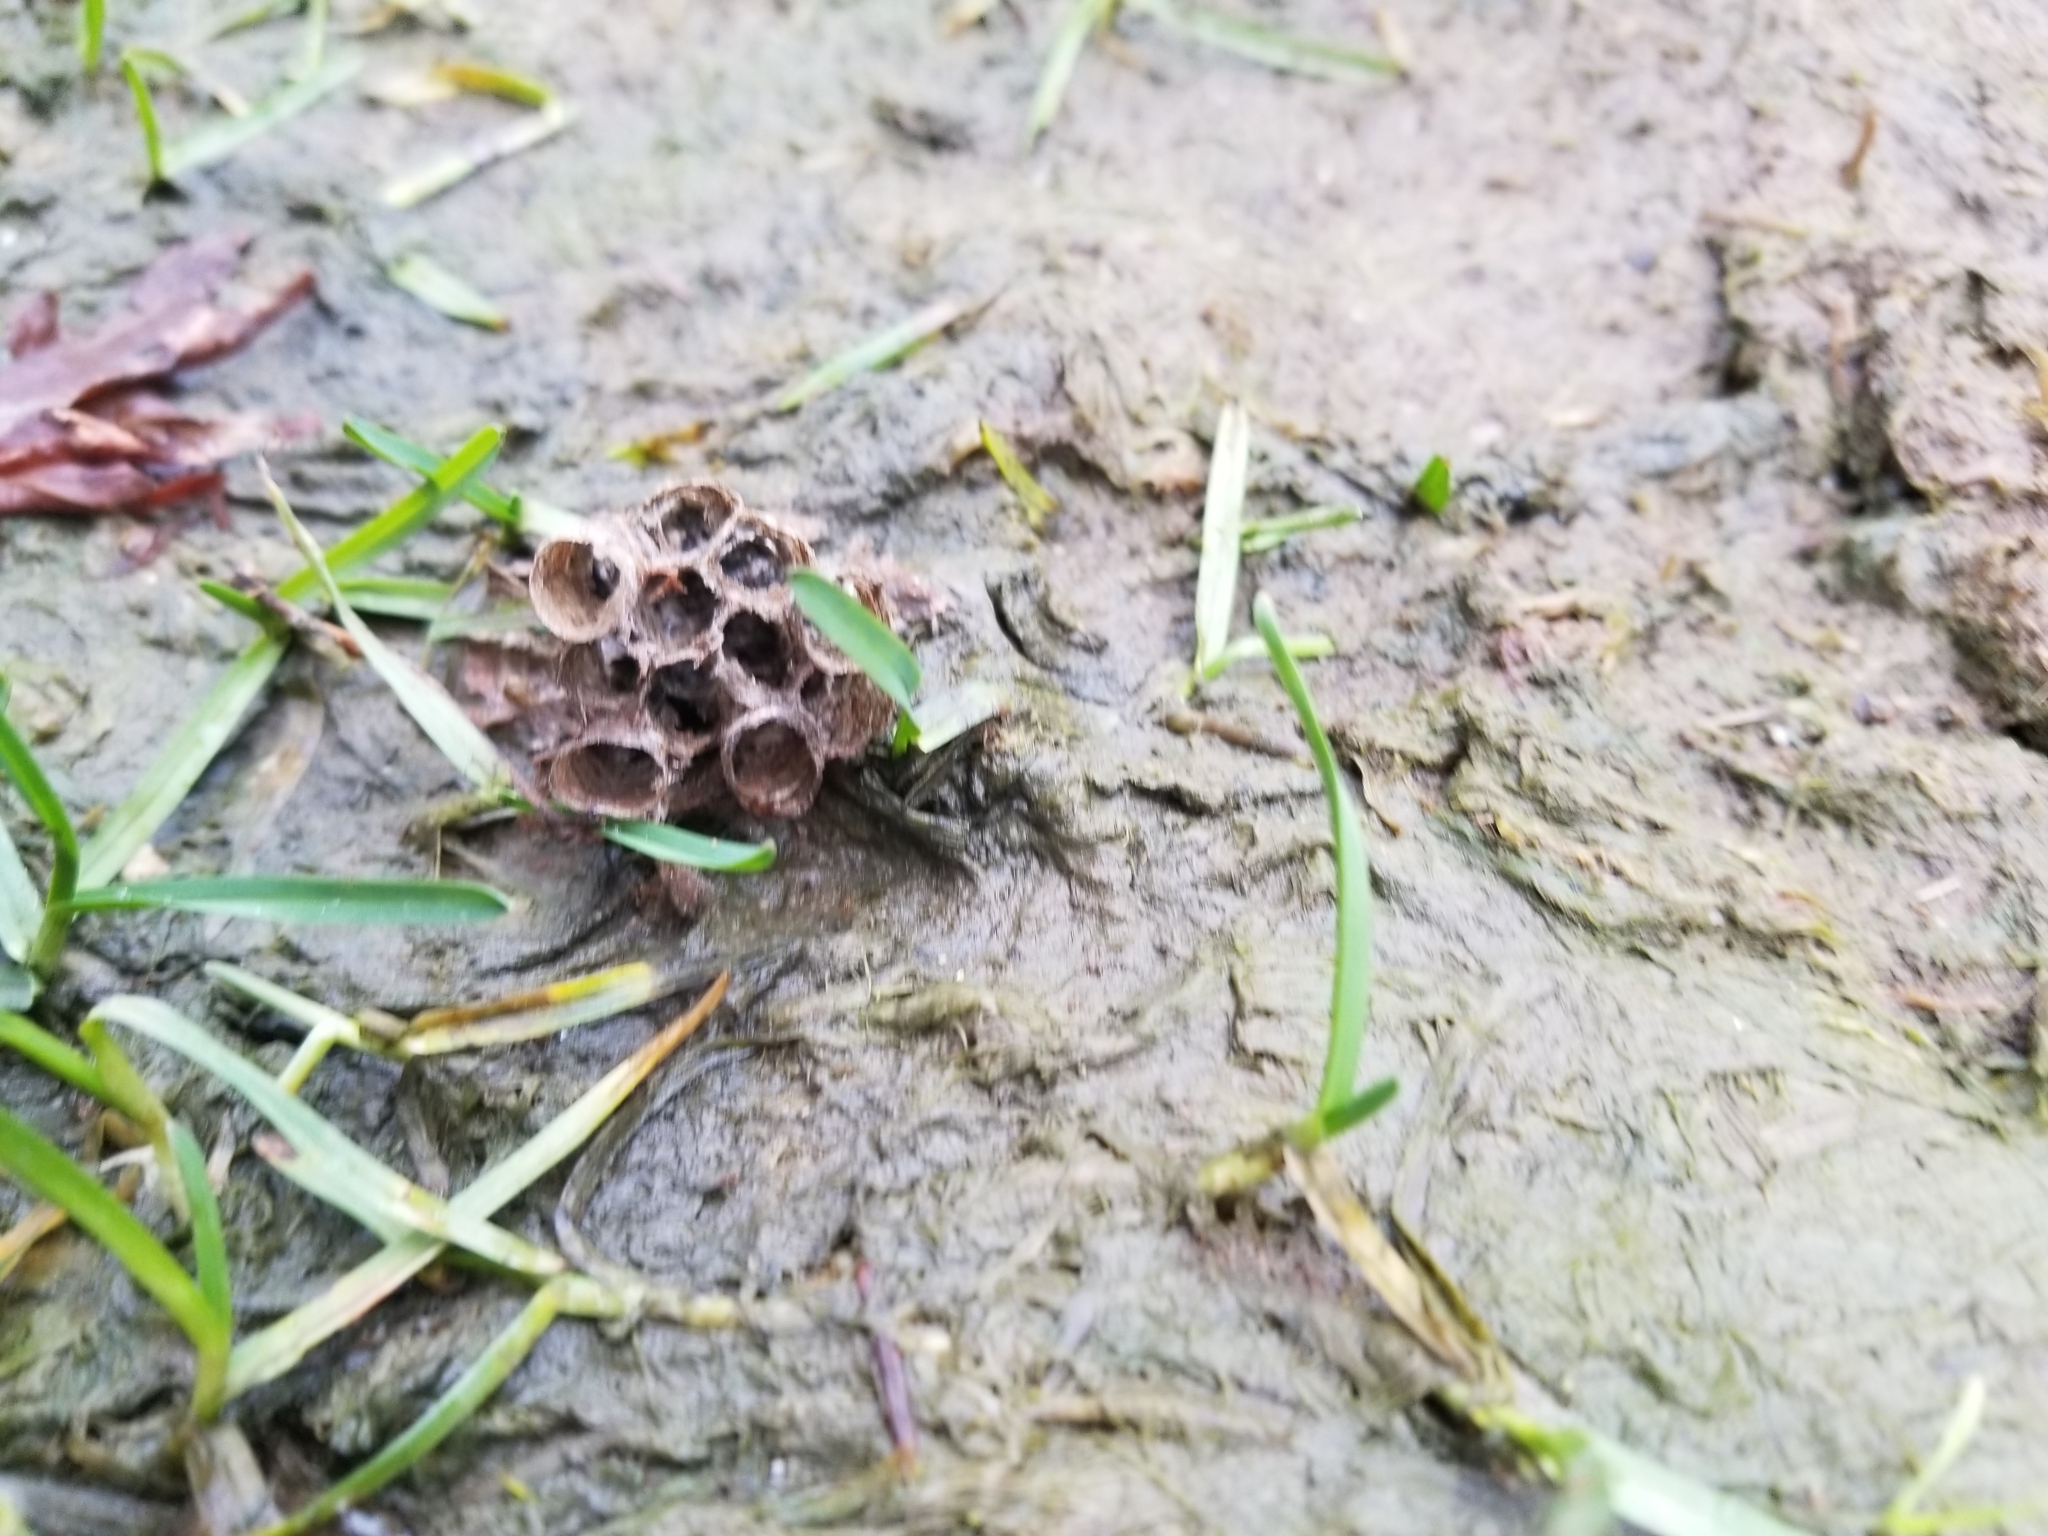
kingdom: Animalia
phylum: Arthropoda
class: Insecta
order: Hymenoptera
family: Vespidae
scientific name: Vespidae
